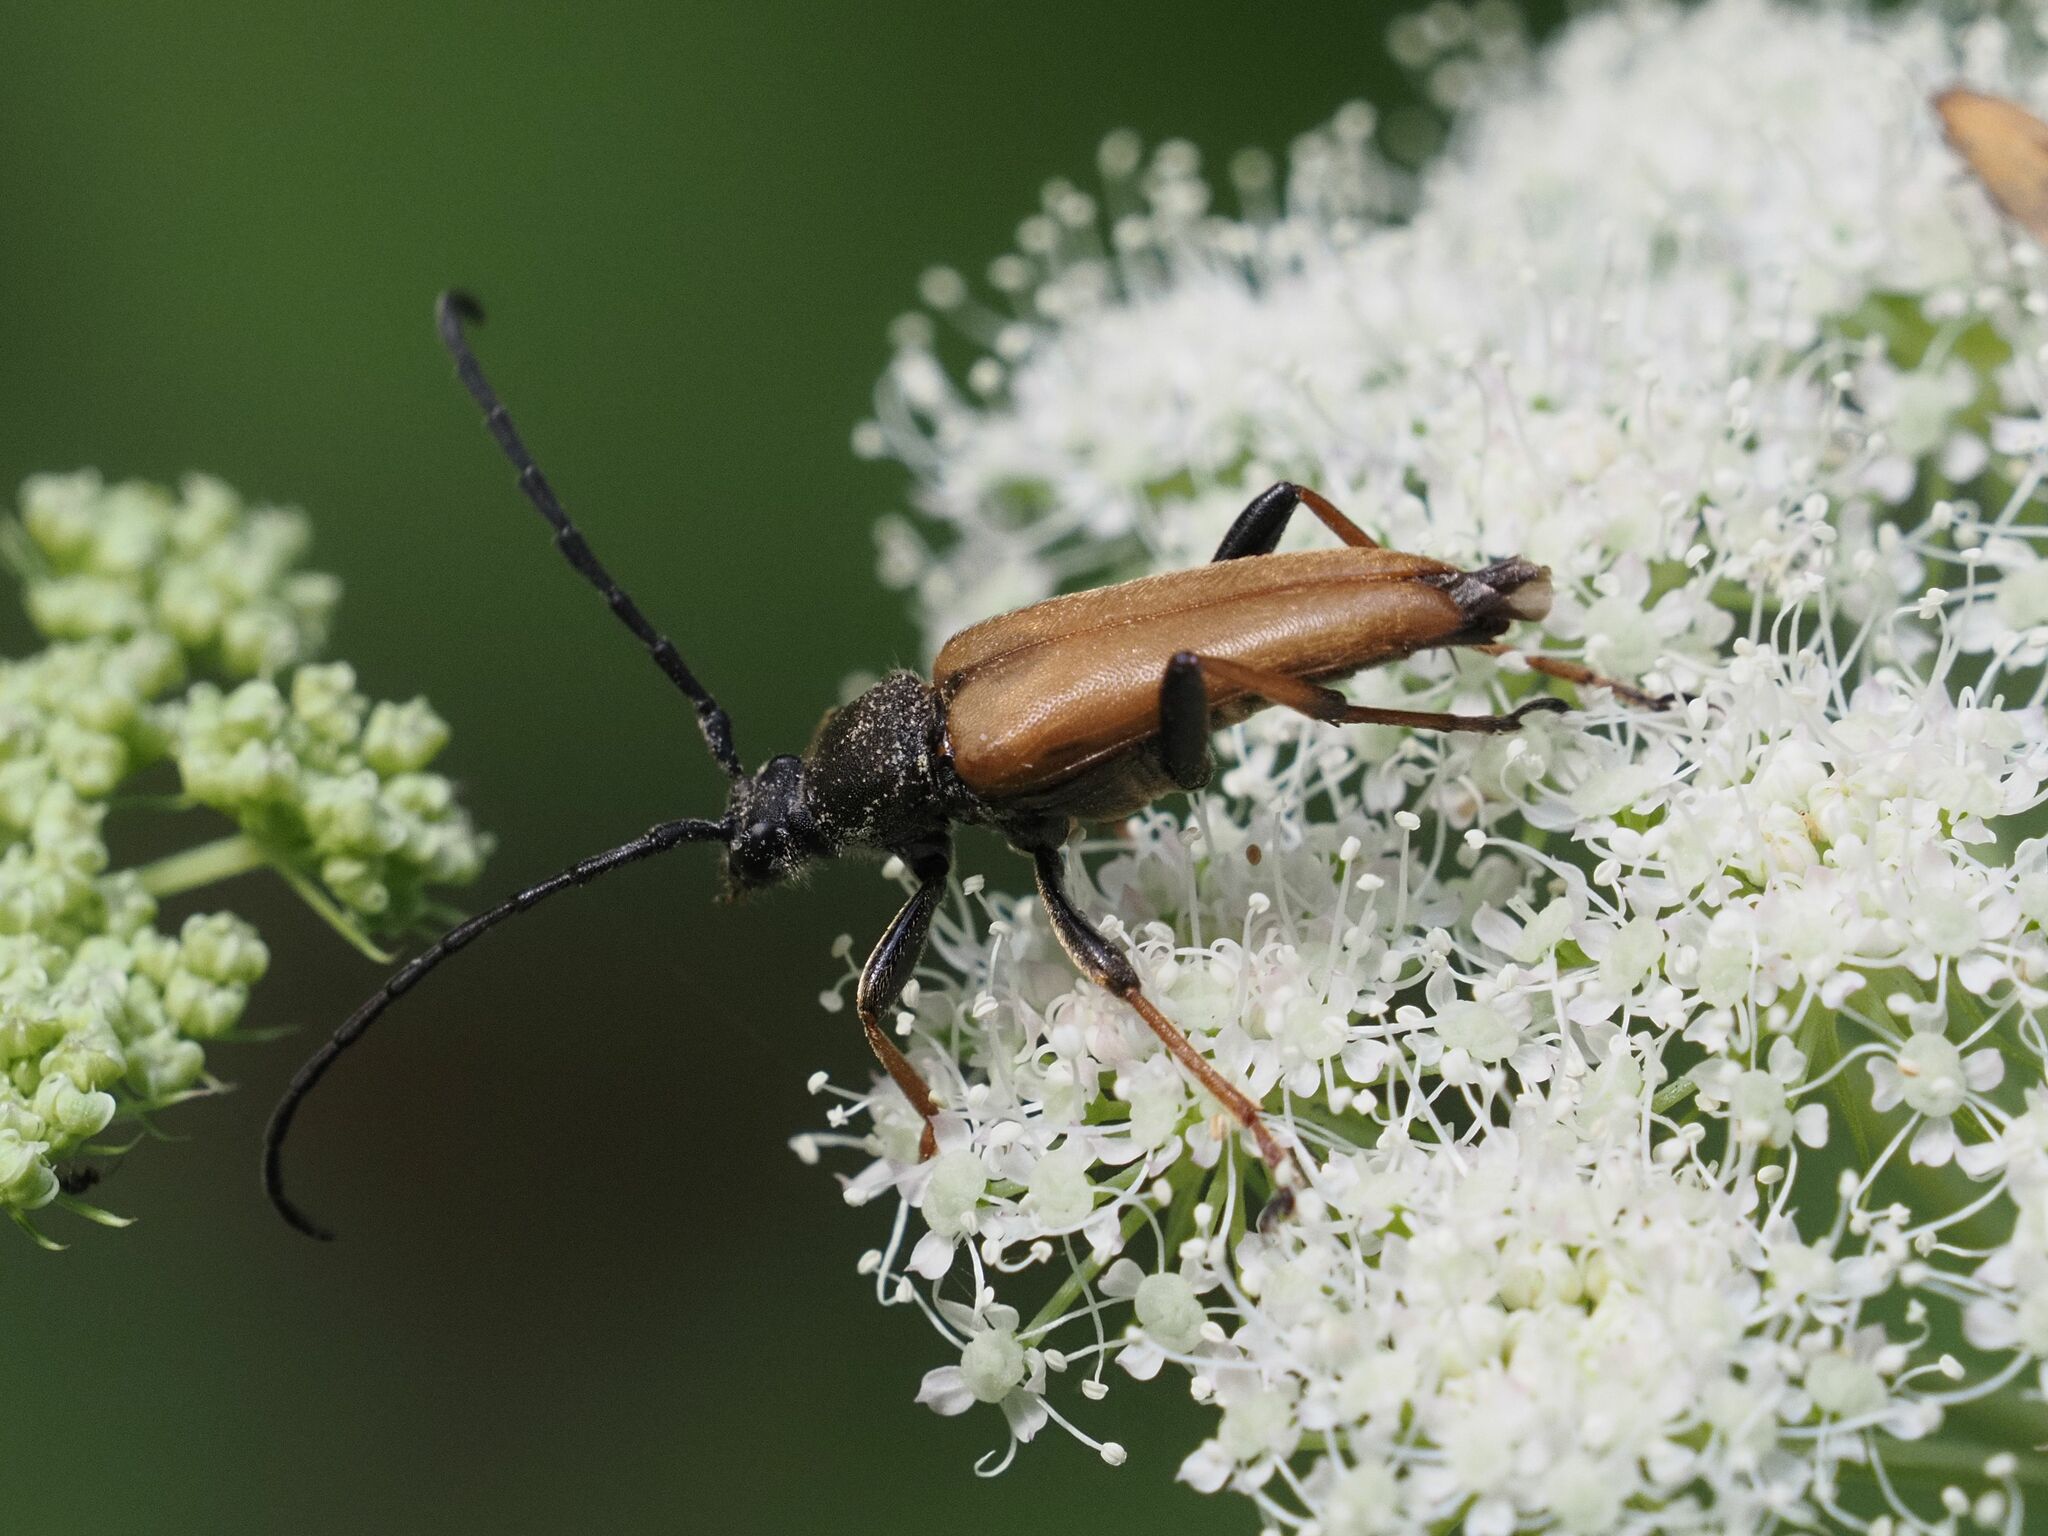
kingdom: Animalia
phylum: Arthropoda
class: Insecta
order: Coleoptera
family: Cerambycidae
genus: Stictoleptura
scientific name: Stictoleptura rubra
